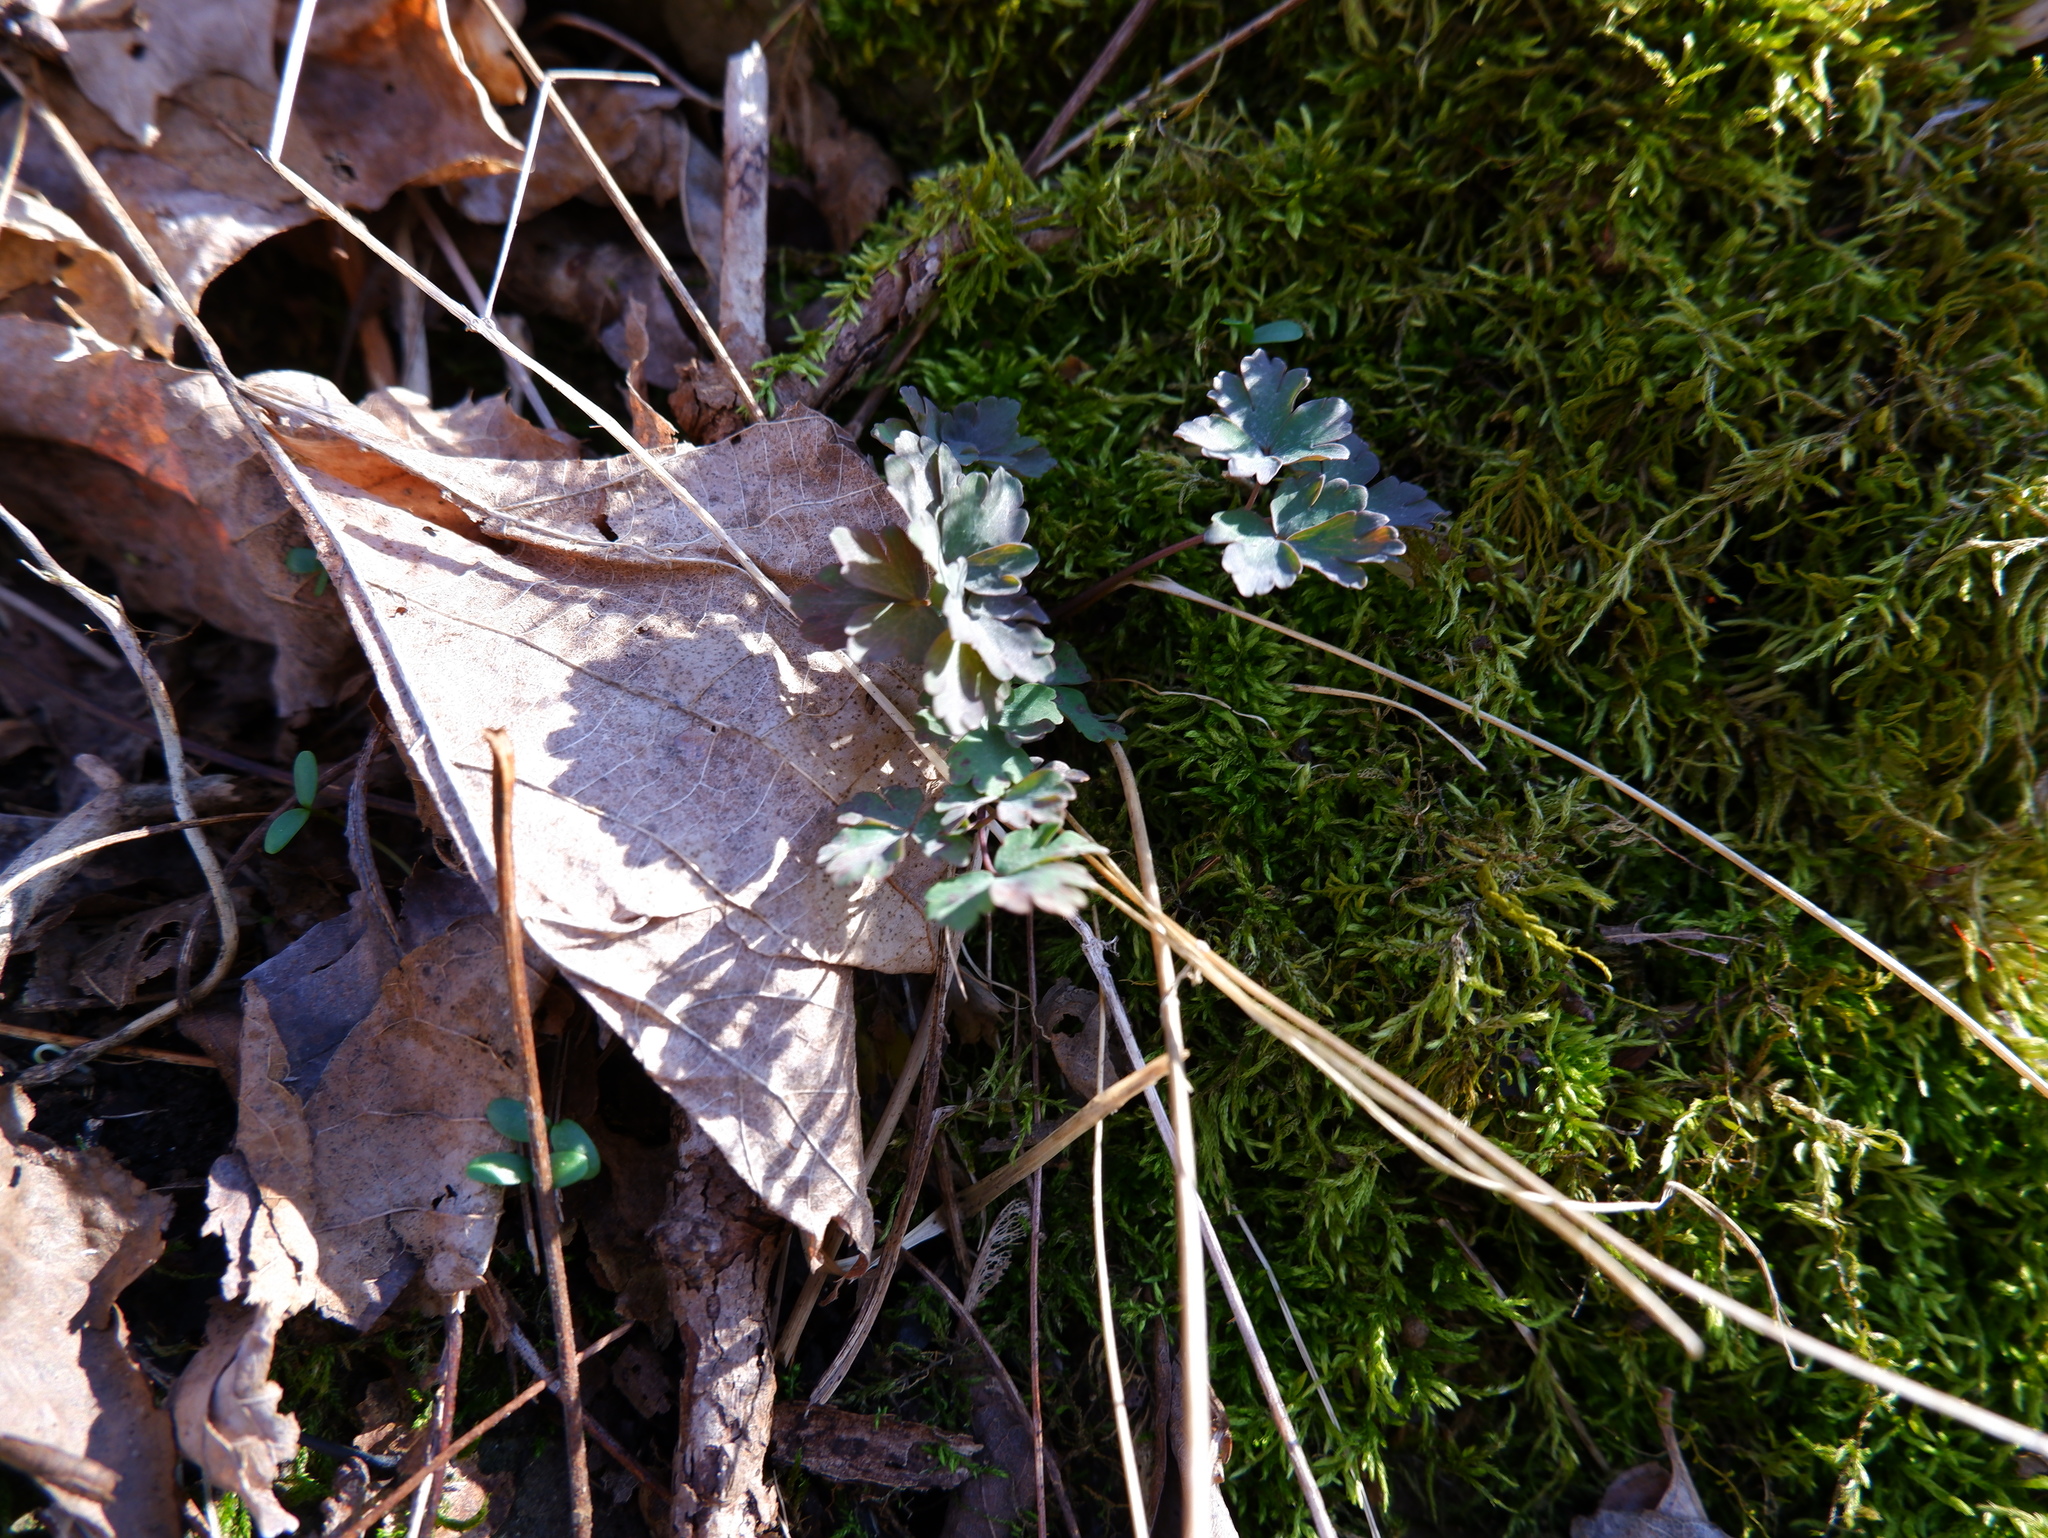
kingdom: Plantae
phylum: Tracheophyta
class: Magnoliopsida
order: Ranunculales
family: Papaveraceae
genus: Capnoides
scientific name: Capnoides sempervirens
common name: Rock harlequin
